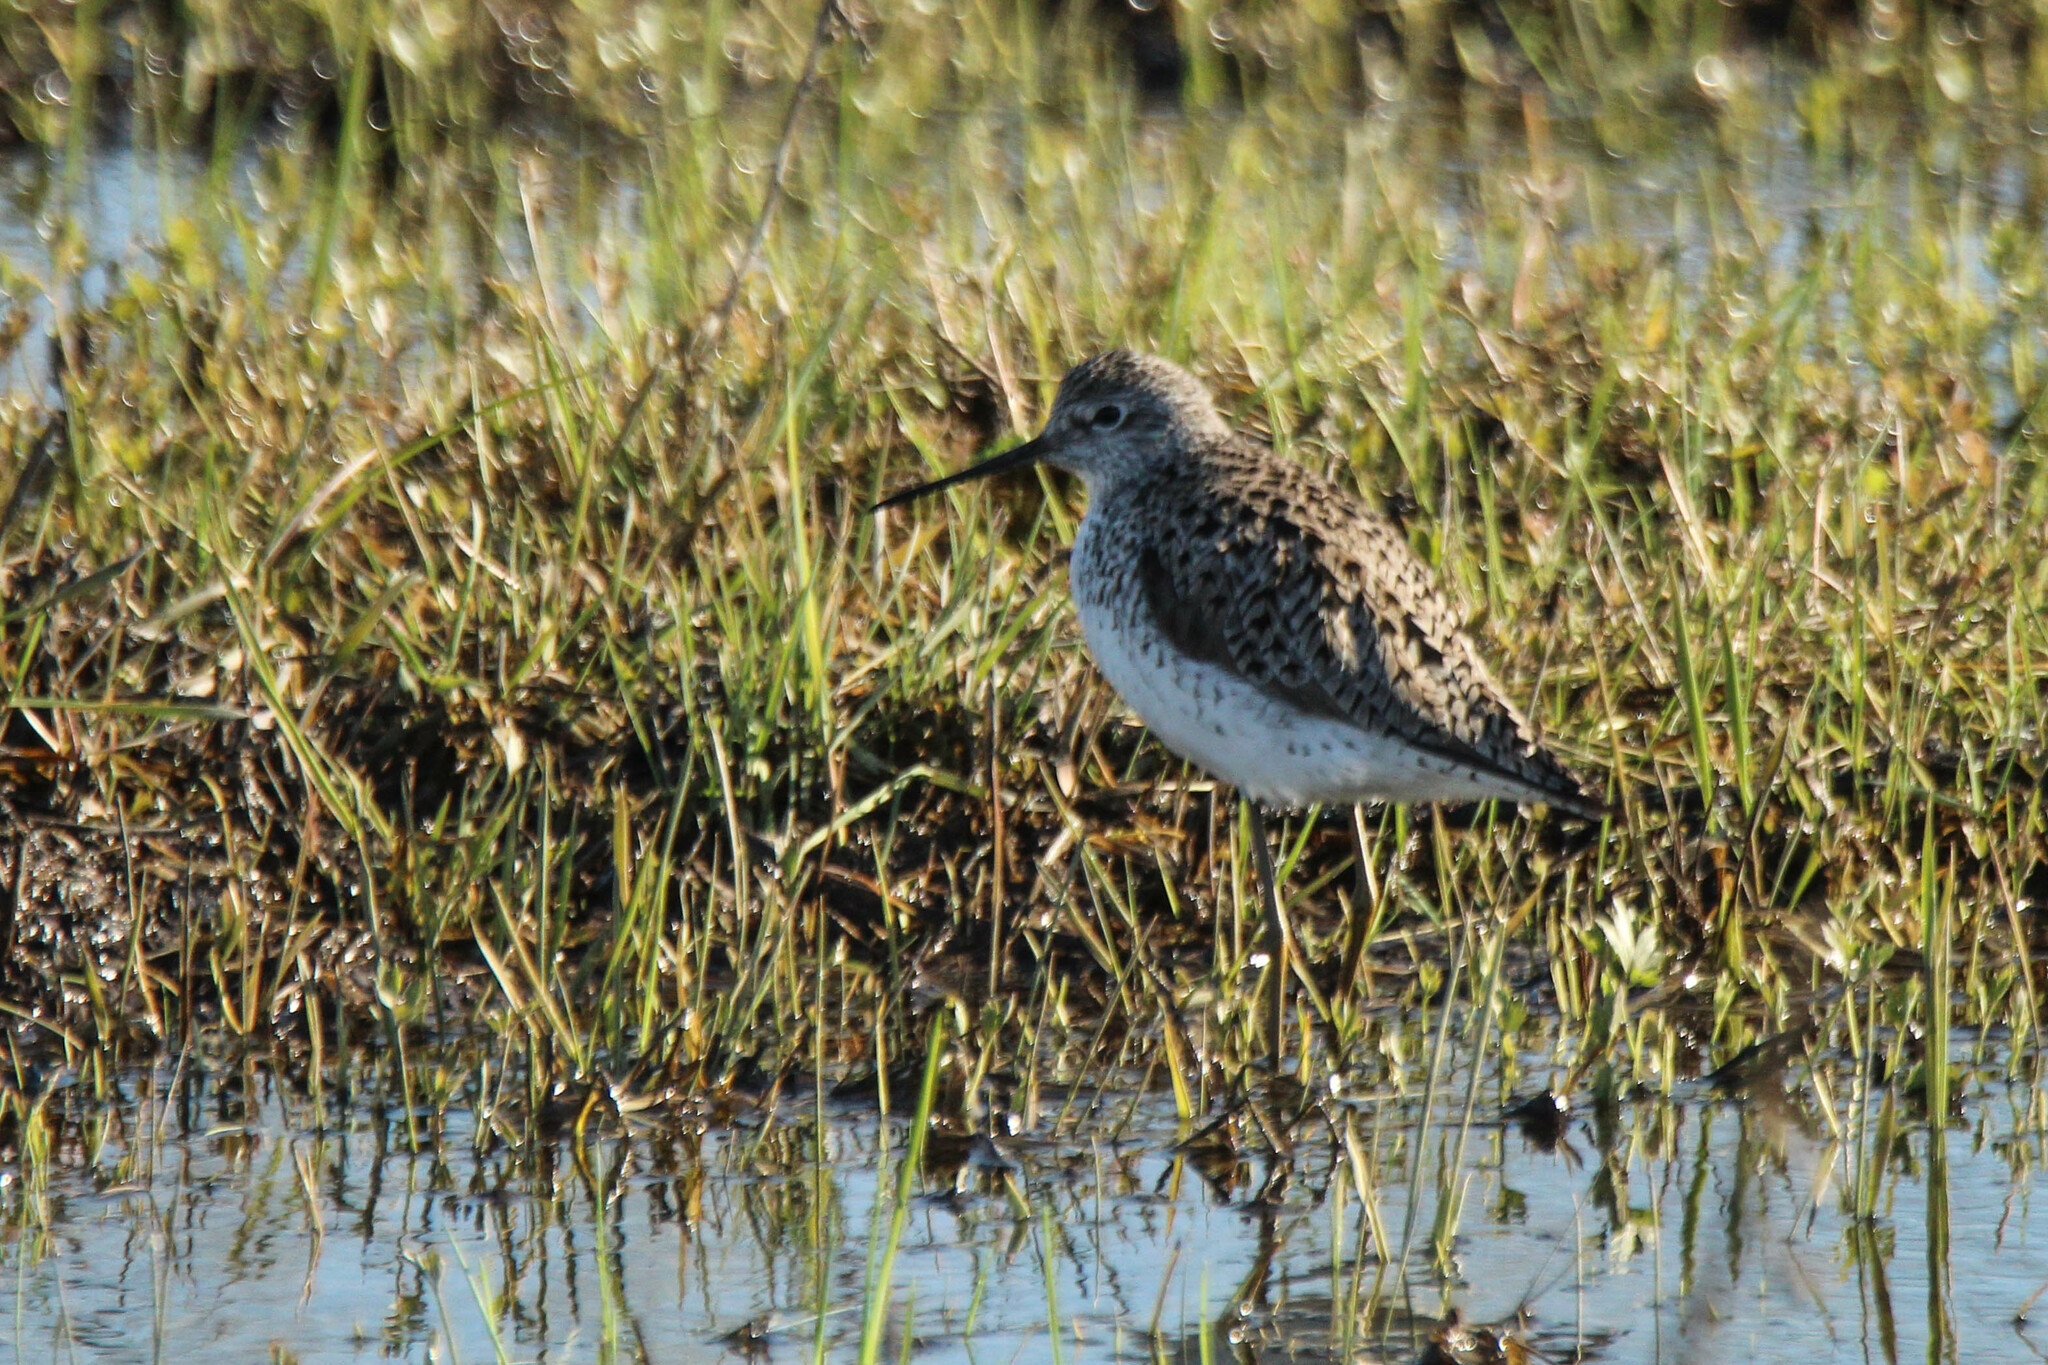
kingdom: Animalia
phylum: Chordata
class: Aves
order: Charadriiformes
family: Scolopacidae
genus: Tringa
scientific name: Tringa stagnatilis
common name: Marsh sandpiper
